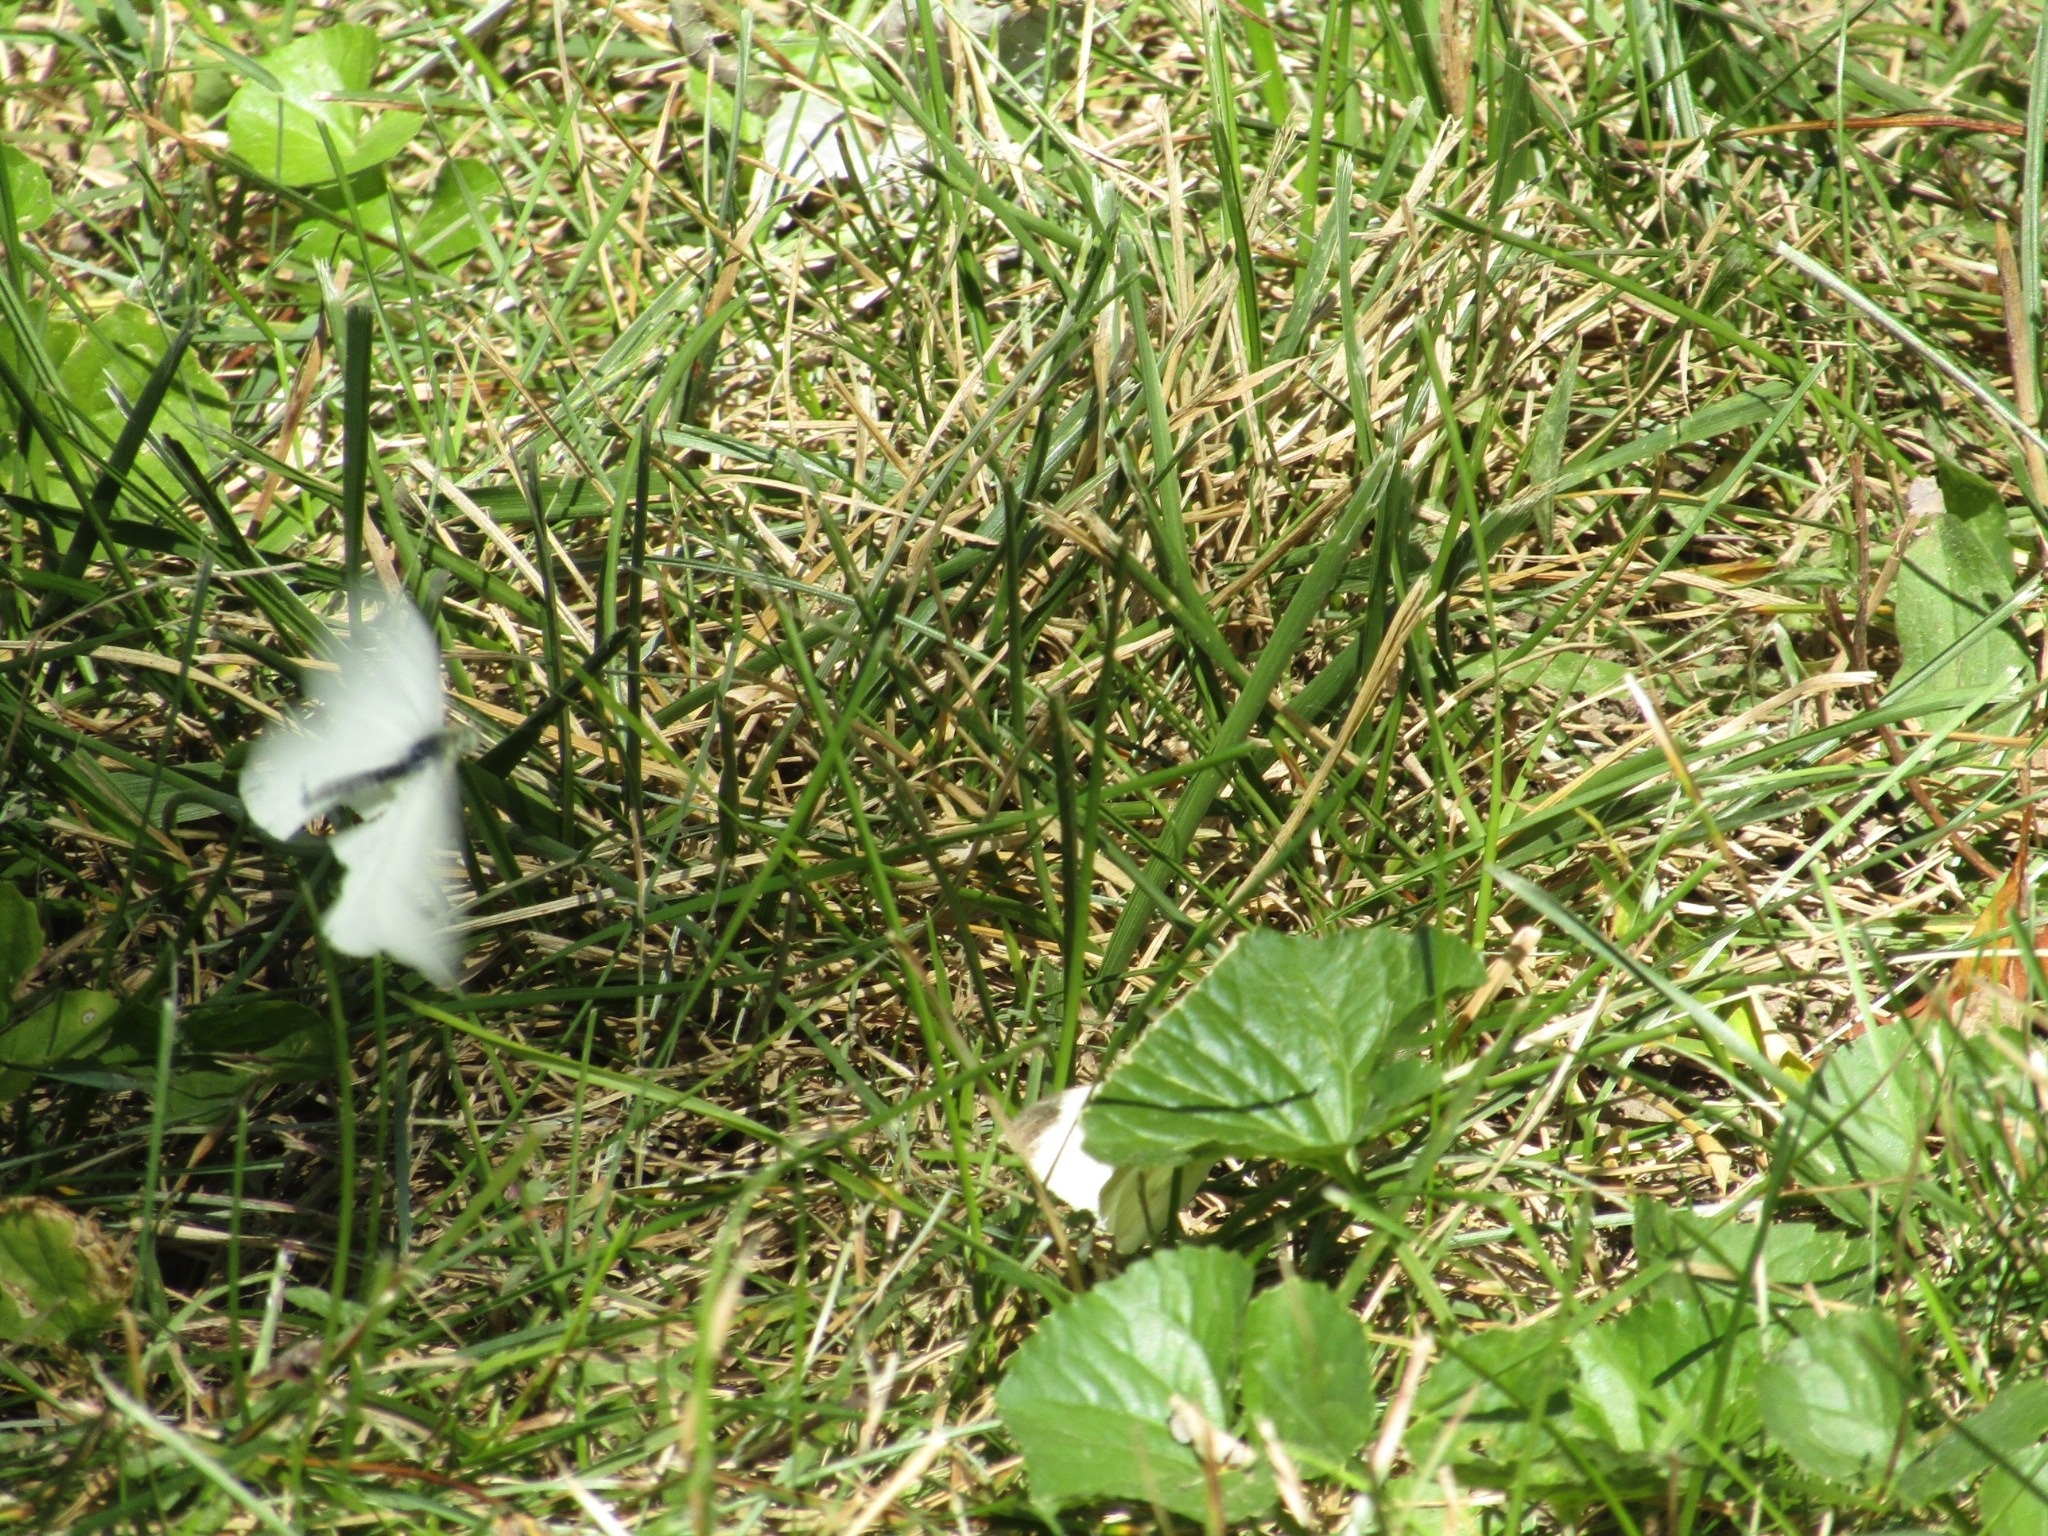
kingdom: Animalia
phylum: Arthropoda
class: Insecta
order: Lepidoptera
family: Pieridae
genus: Pieris
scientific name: Pieris rapae
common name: Small white
